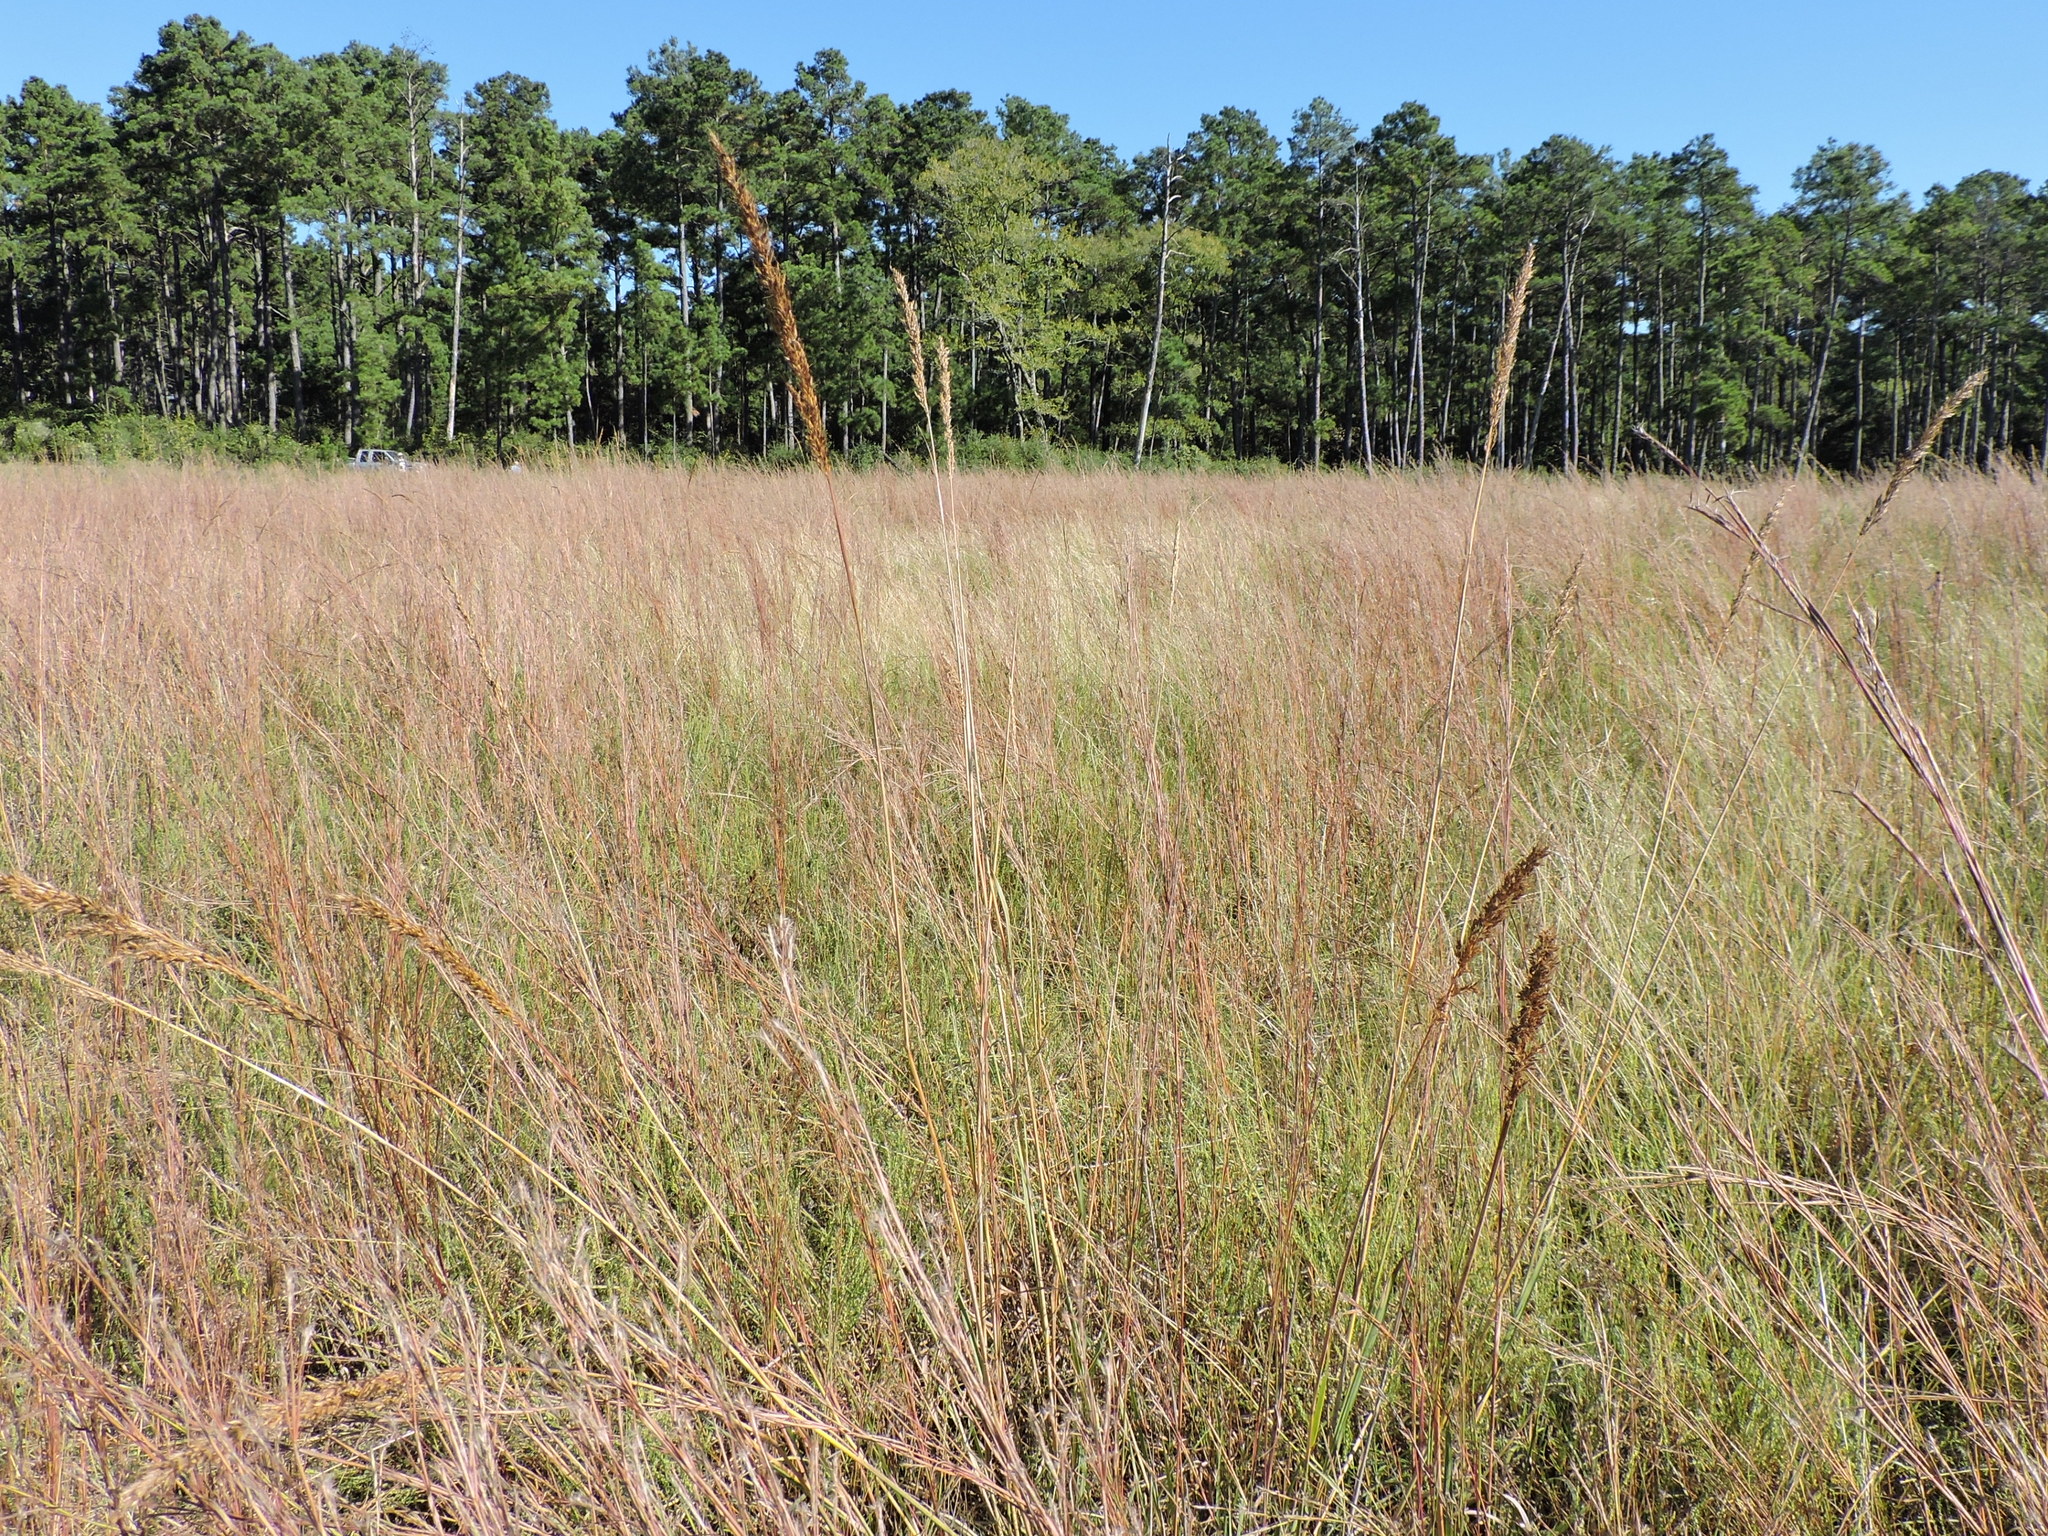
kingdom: Plantae
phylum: Tracheophyta
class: Liliopsida
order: Poales
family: Poaceae
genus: Sorghastrum
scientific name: Sorghastrum nutans
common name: Indian grass
